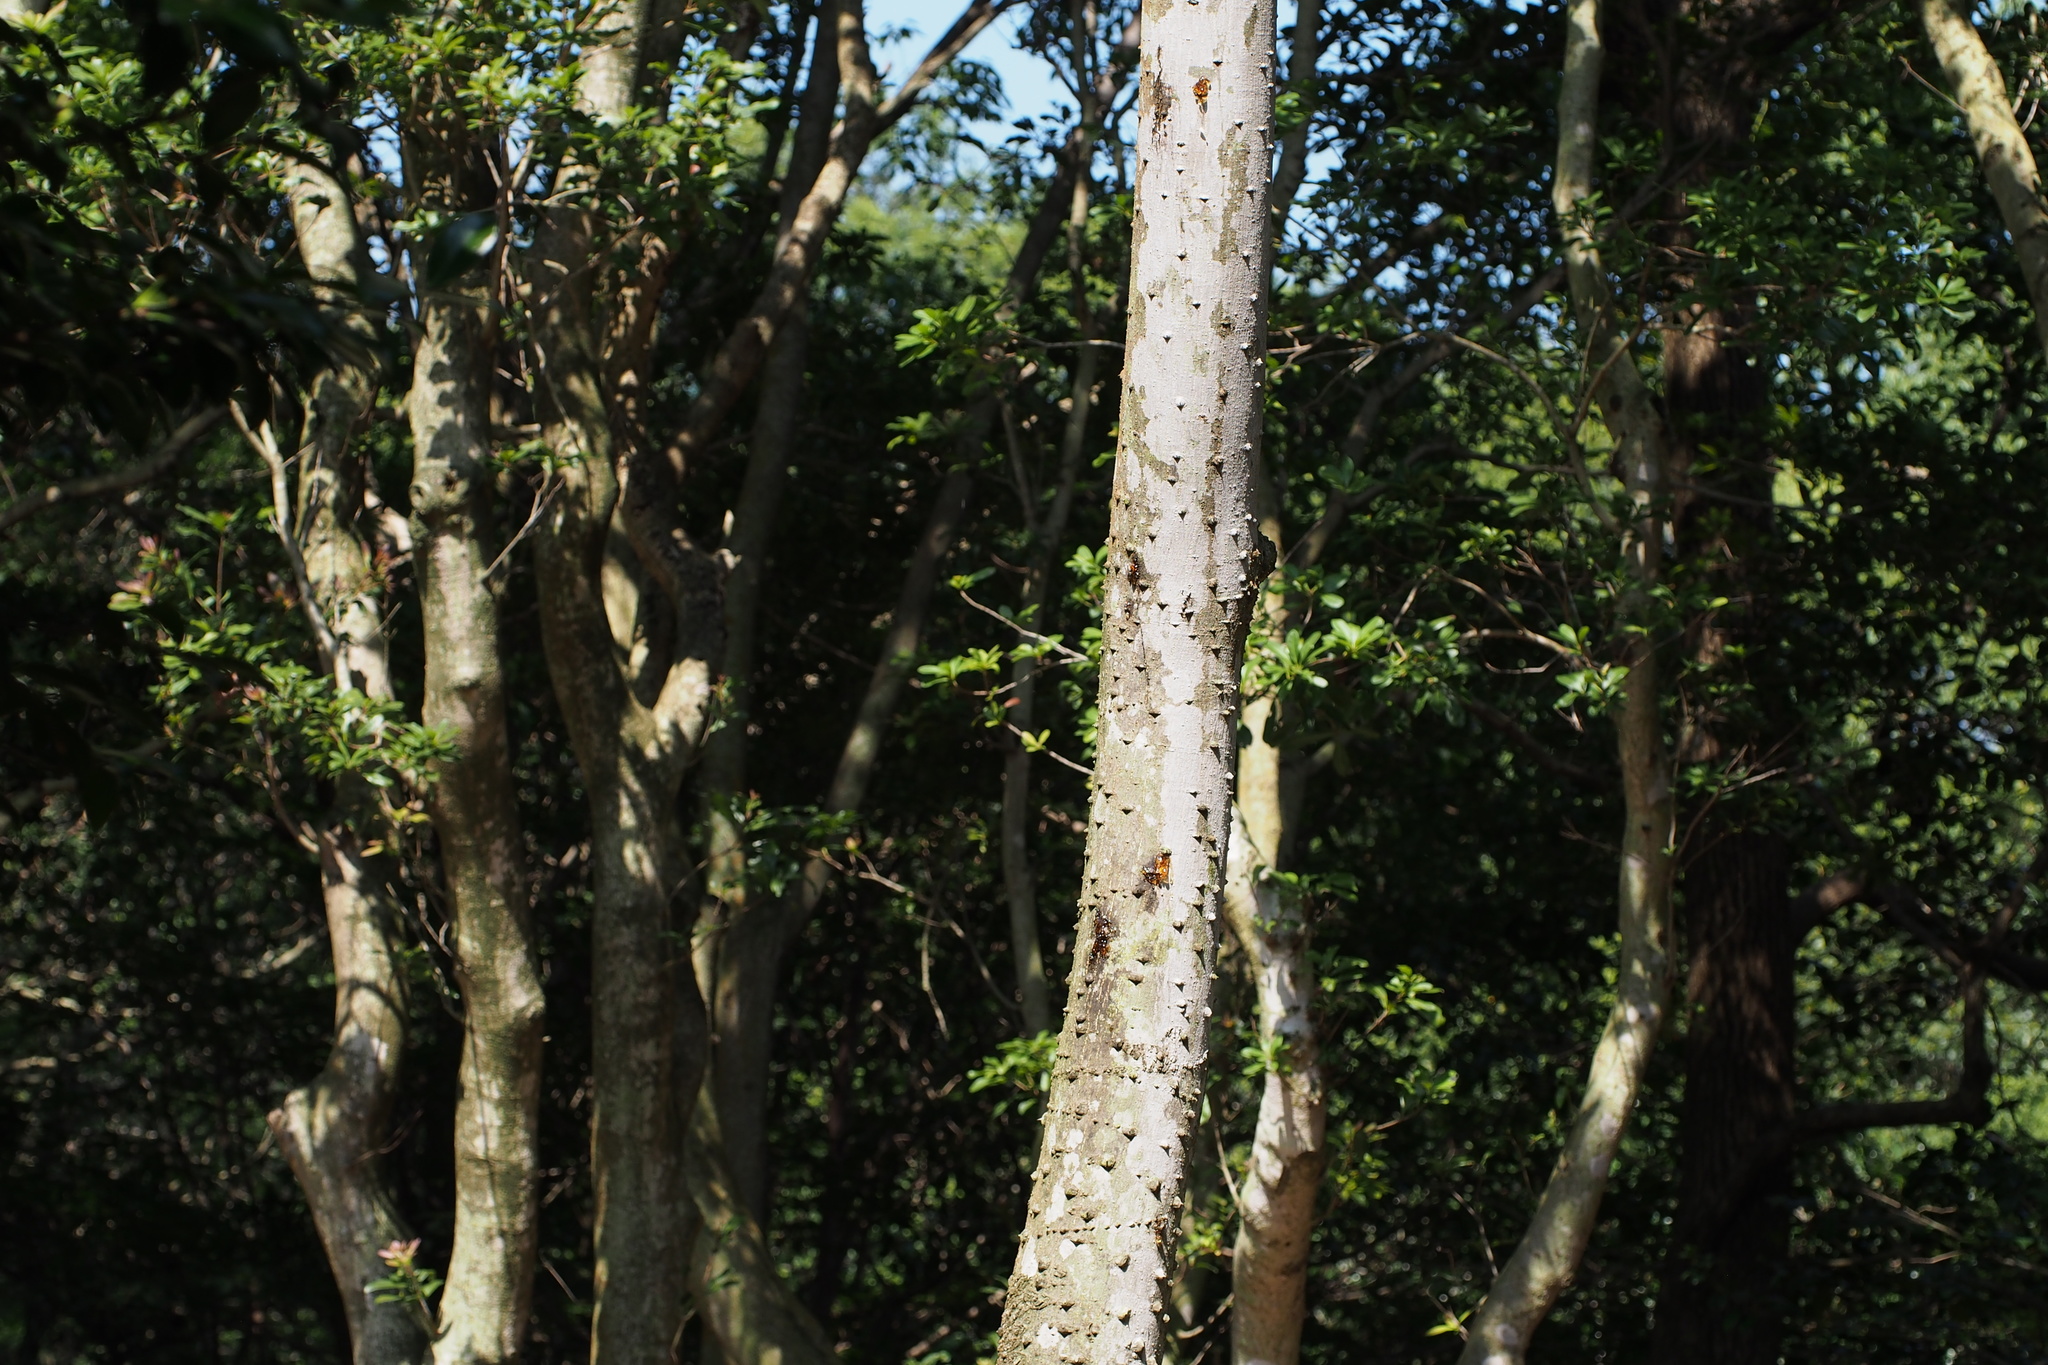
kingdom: Plantae
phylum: Tracheophyta
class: Magnoliopsida
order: Sapindales
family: Rutaceae
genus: Zanthoxylum
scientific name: Zanthoxylum ailanthoides
